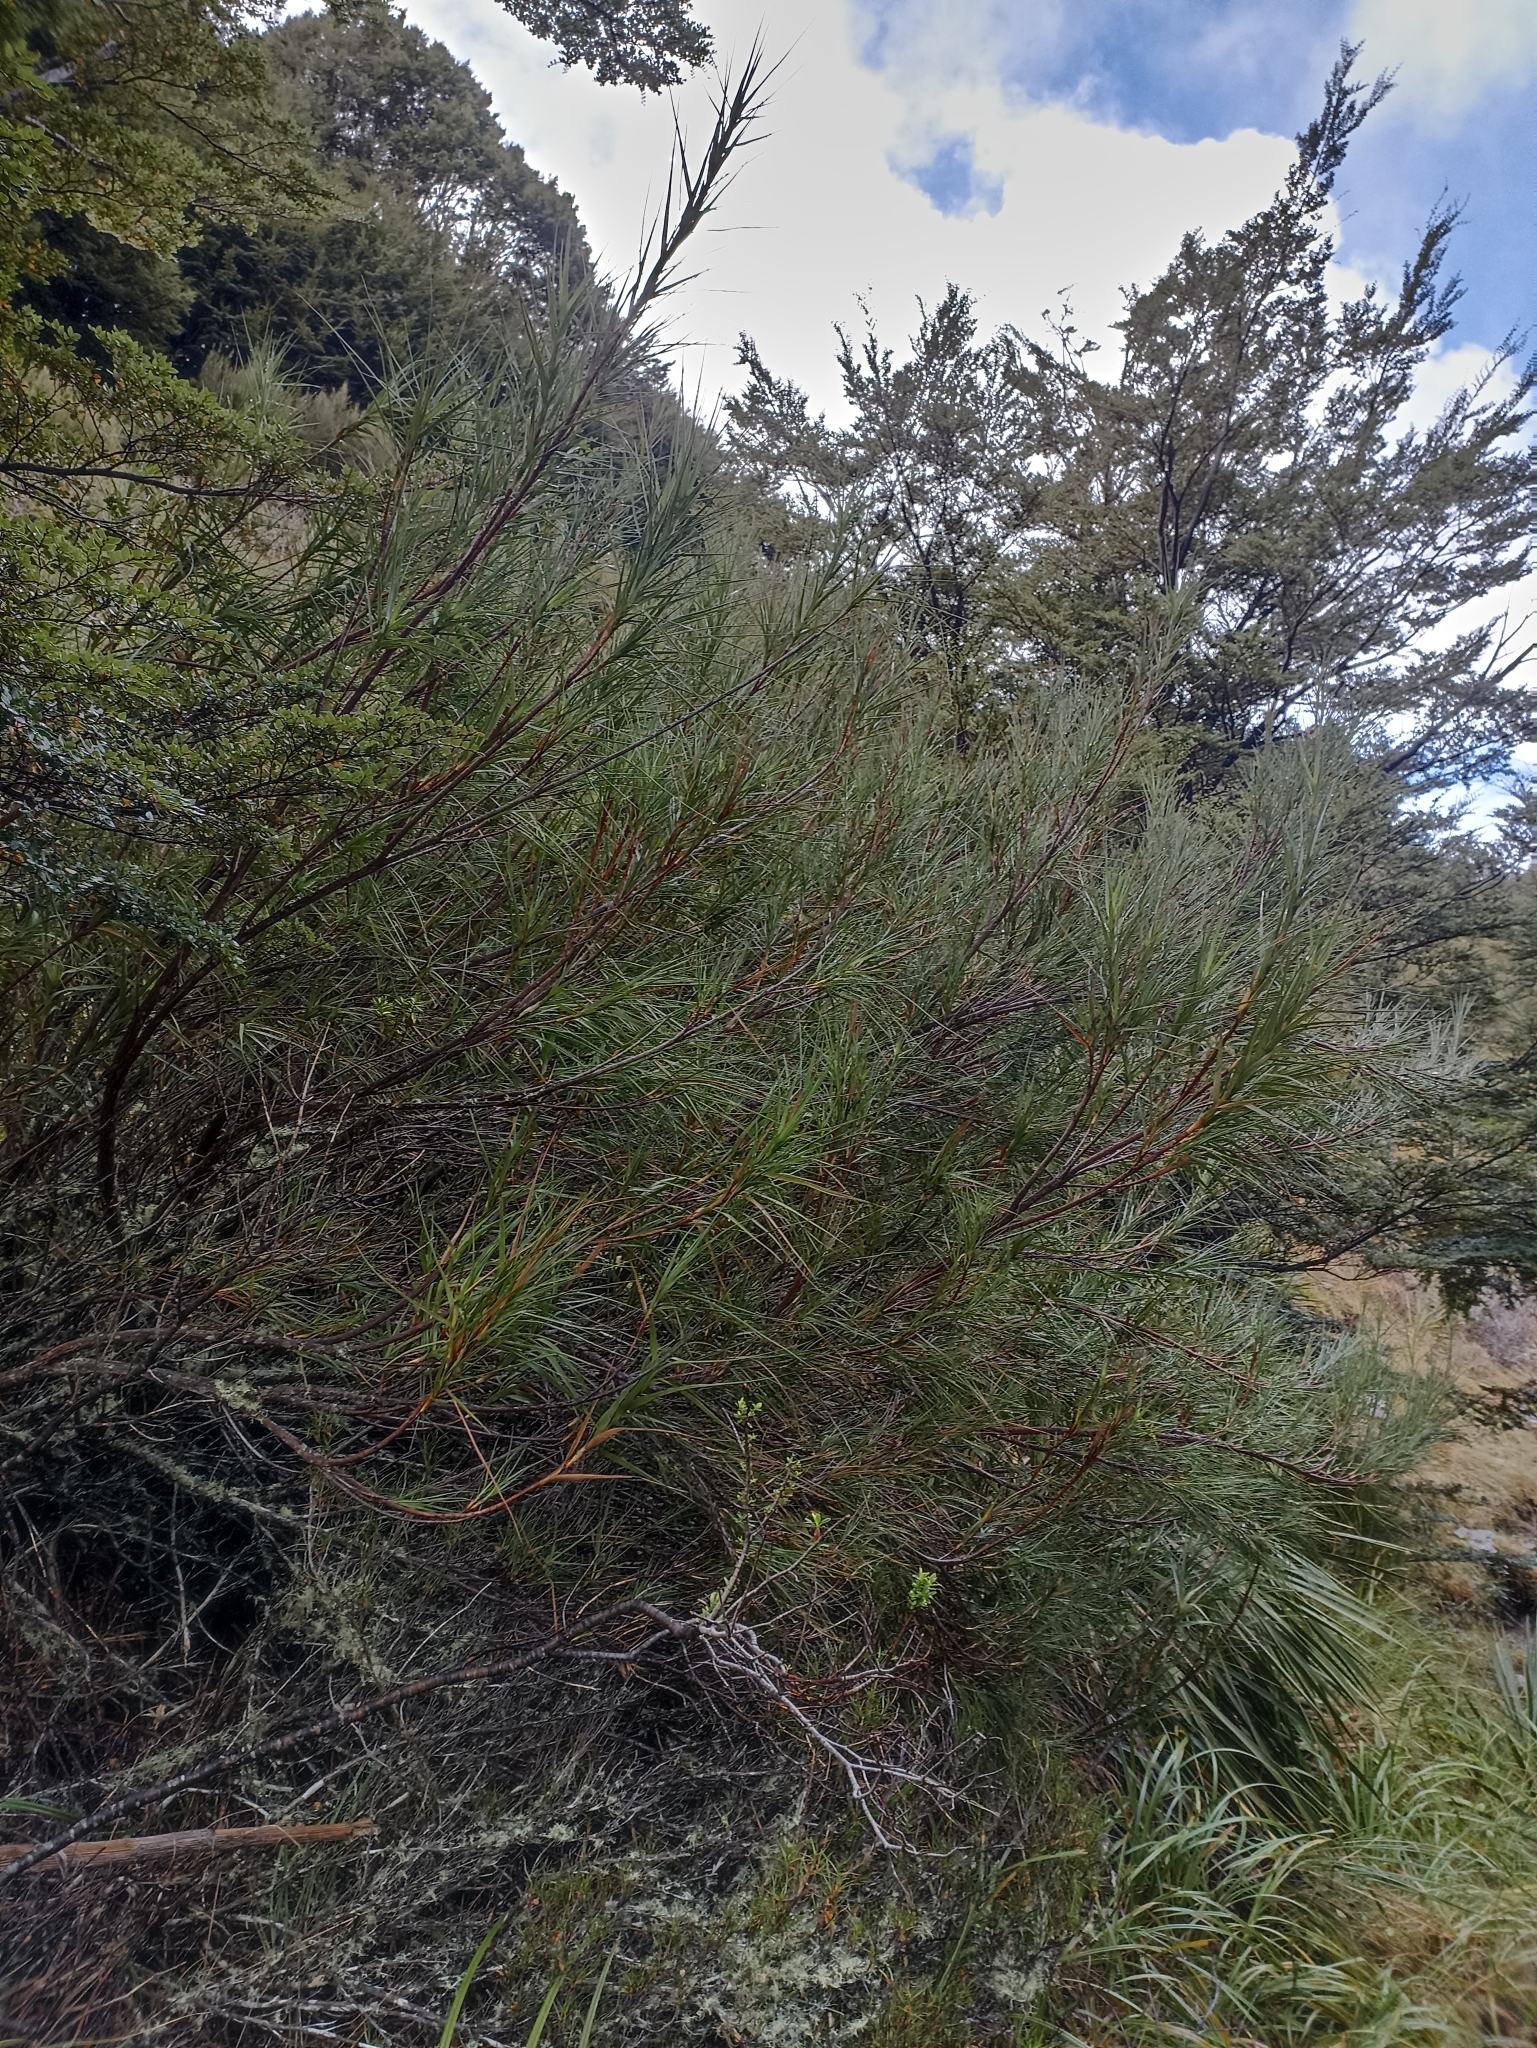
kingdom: Plantae
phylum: Tracheophyta
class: Magnoliopsida
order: Ericales
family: Ericaceae
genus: Dracophyllum
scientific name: Dracophyllum longifolium
